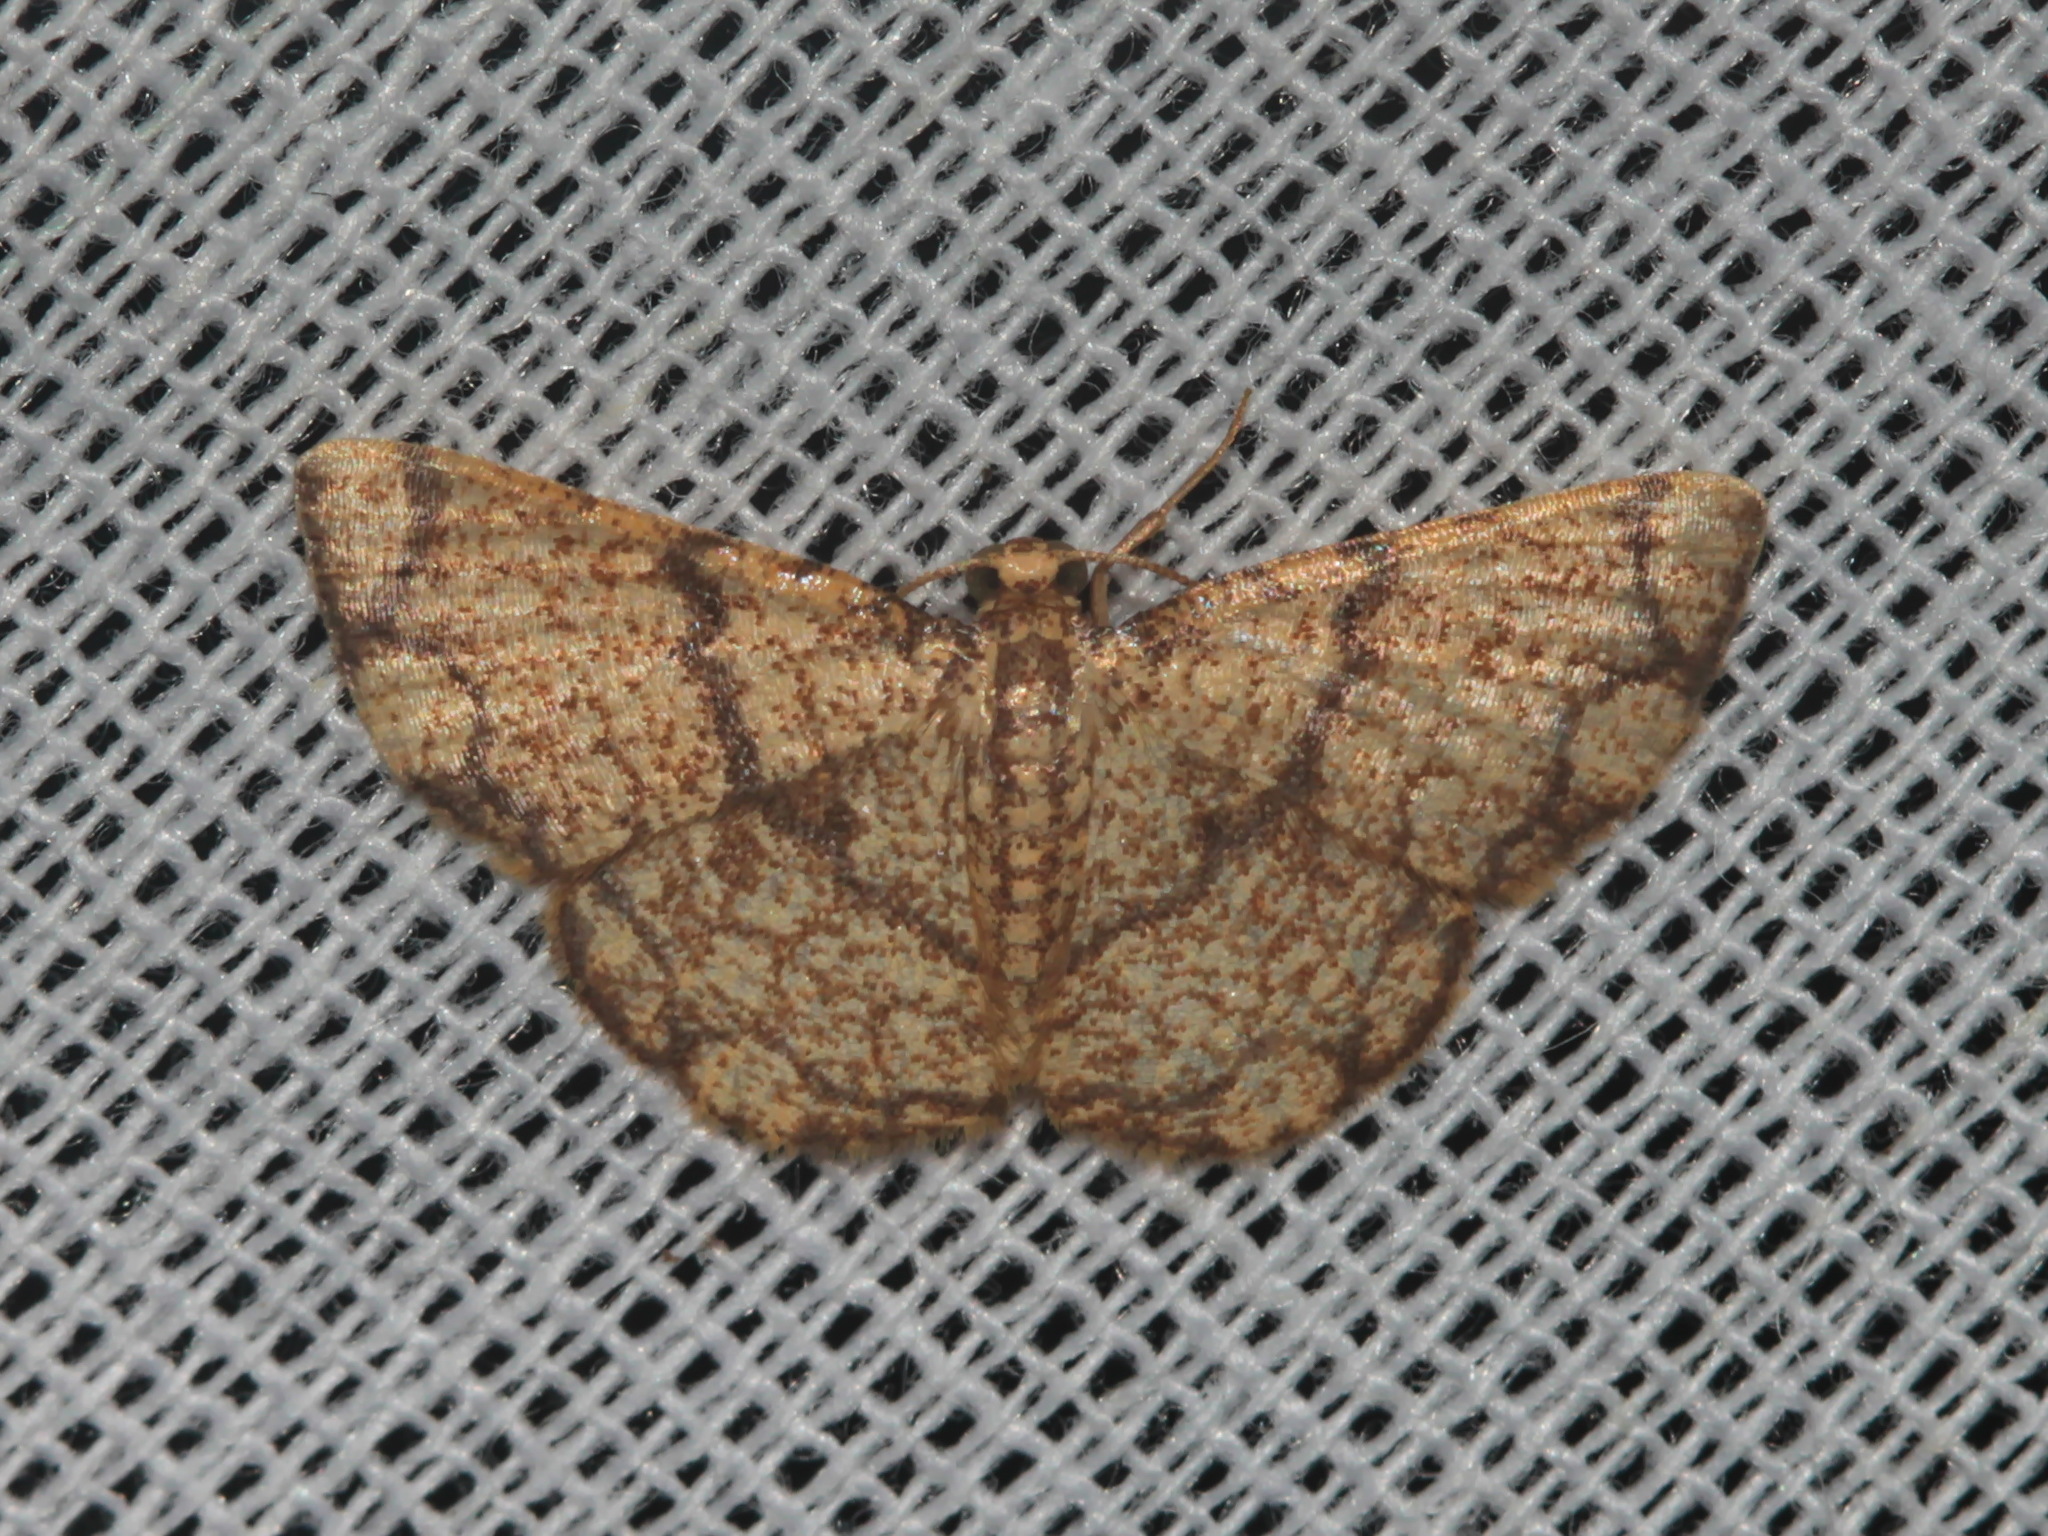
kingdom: Animalia
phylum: Arthropoda
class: Insecta
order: Lepidoptera
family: Geometridae
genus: Heterostegane
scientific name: Heterostegane contessellata
